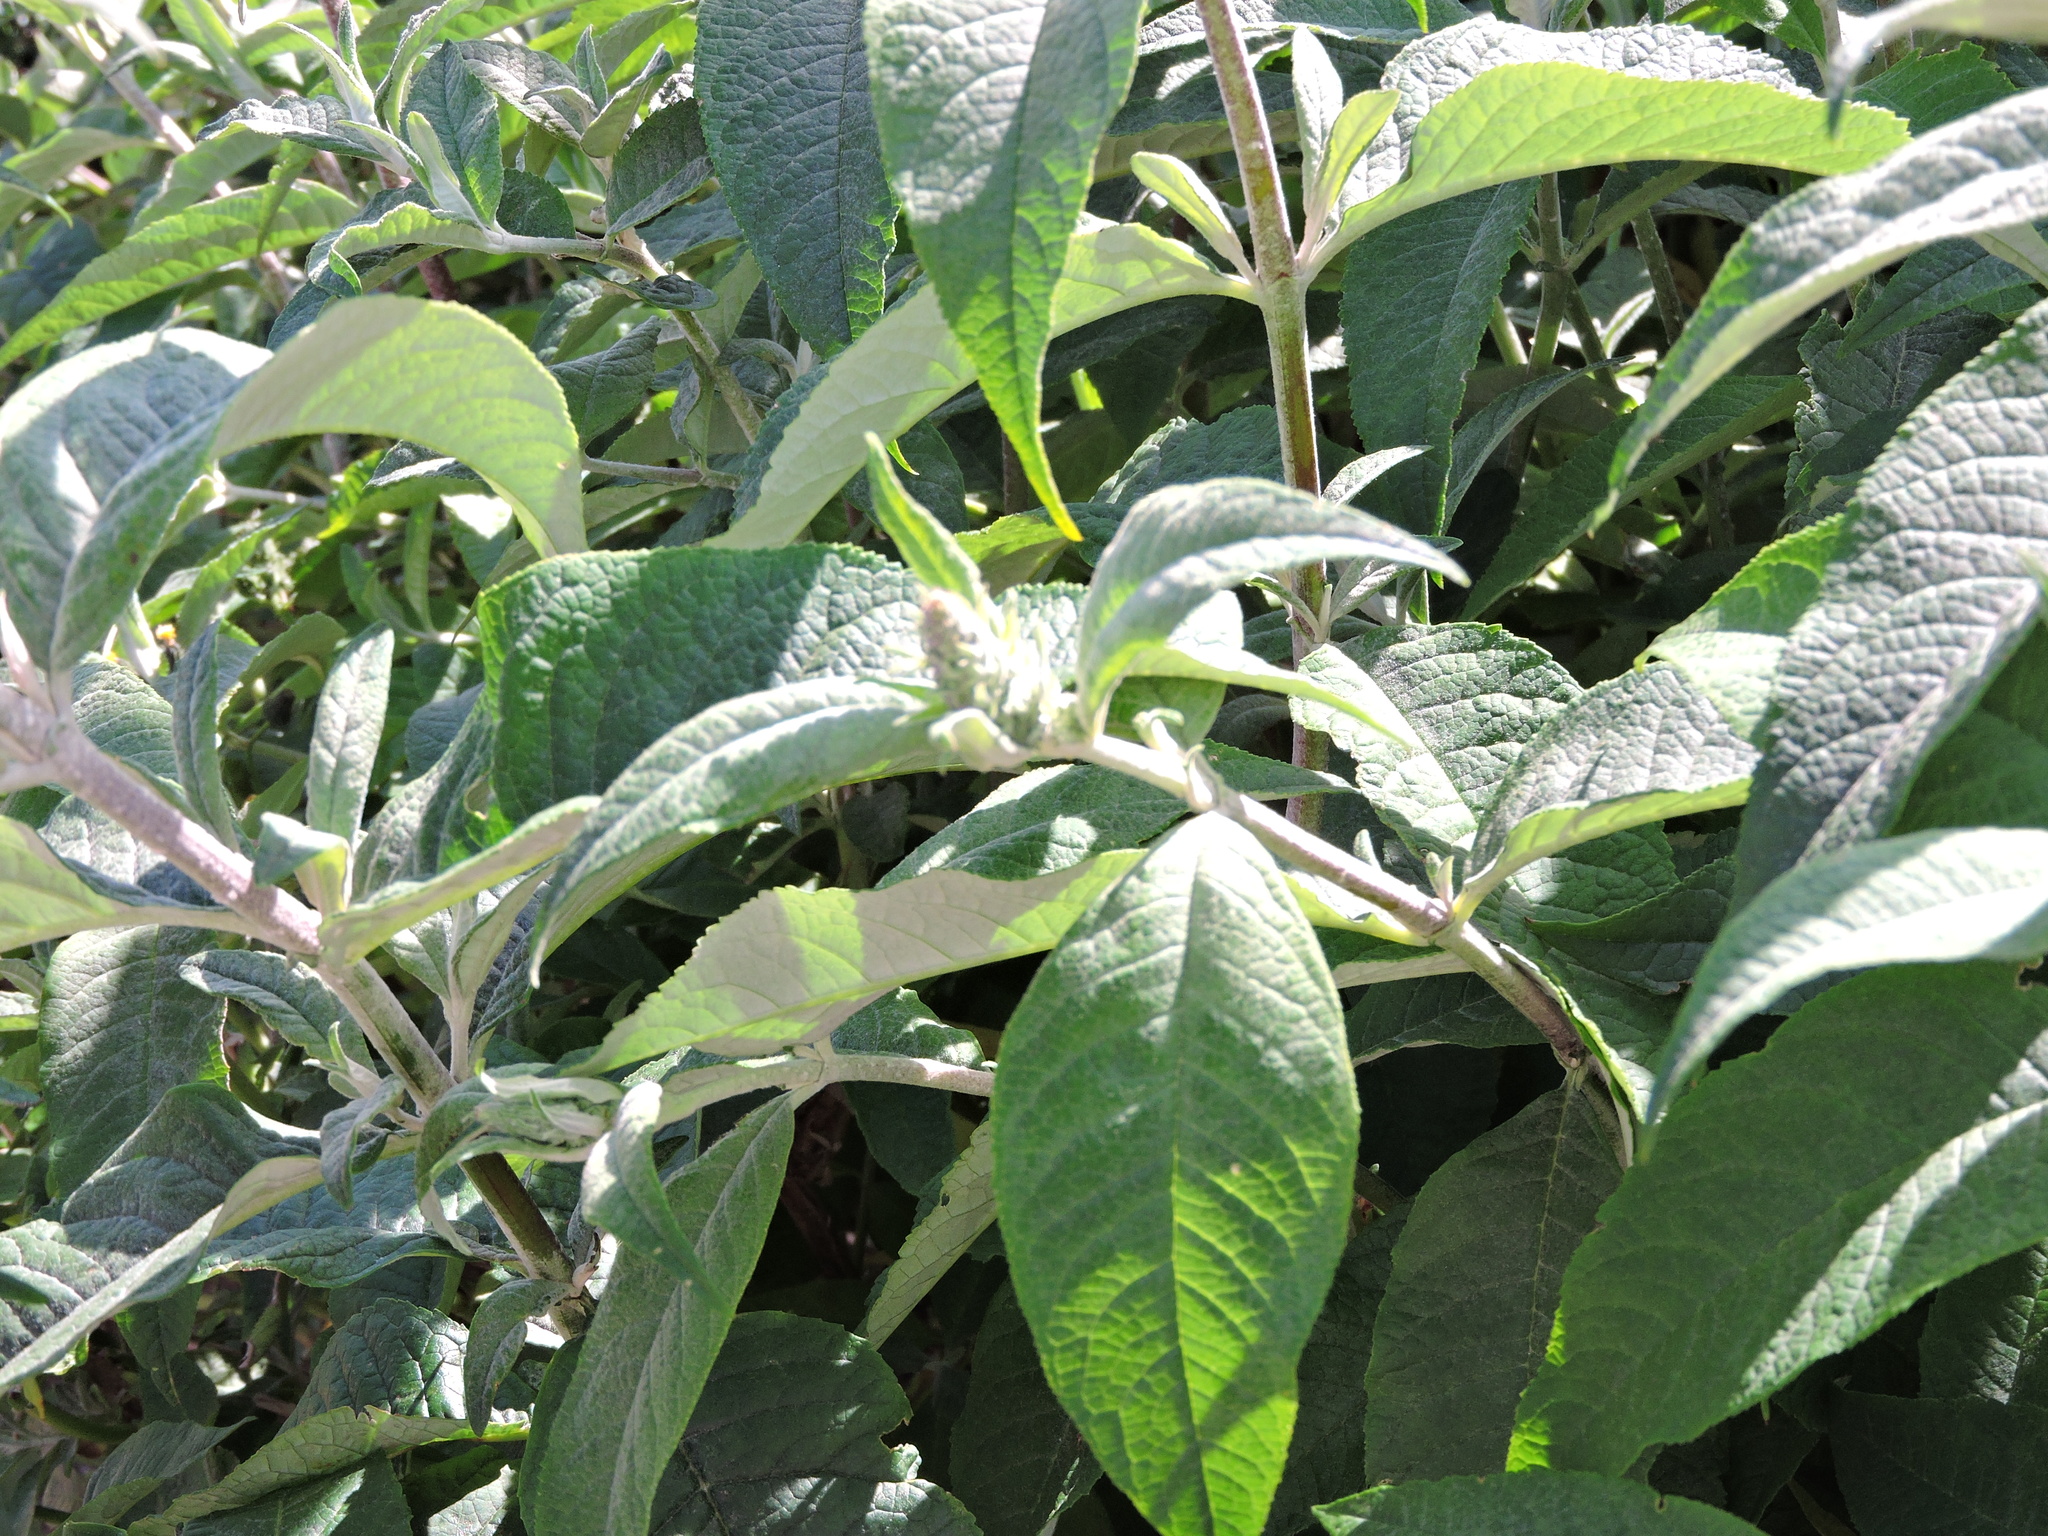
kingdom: Plantae
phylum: Tracheophyta
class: Magnoliopsida
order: Lamiales
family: Scrophulariaceae
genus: Buddleja
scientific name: Buddleja davidii
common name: Butterfly-bush
